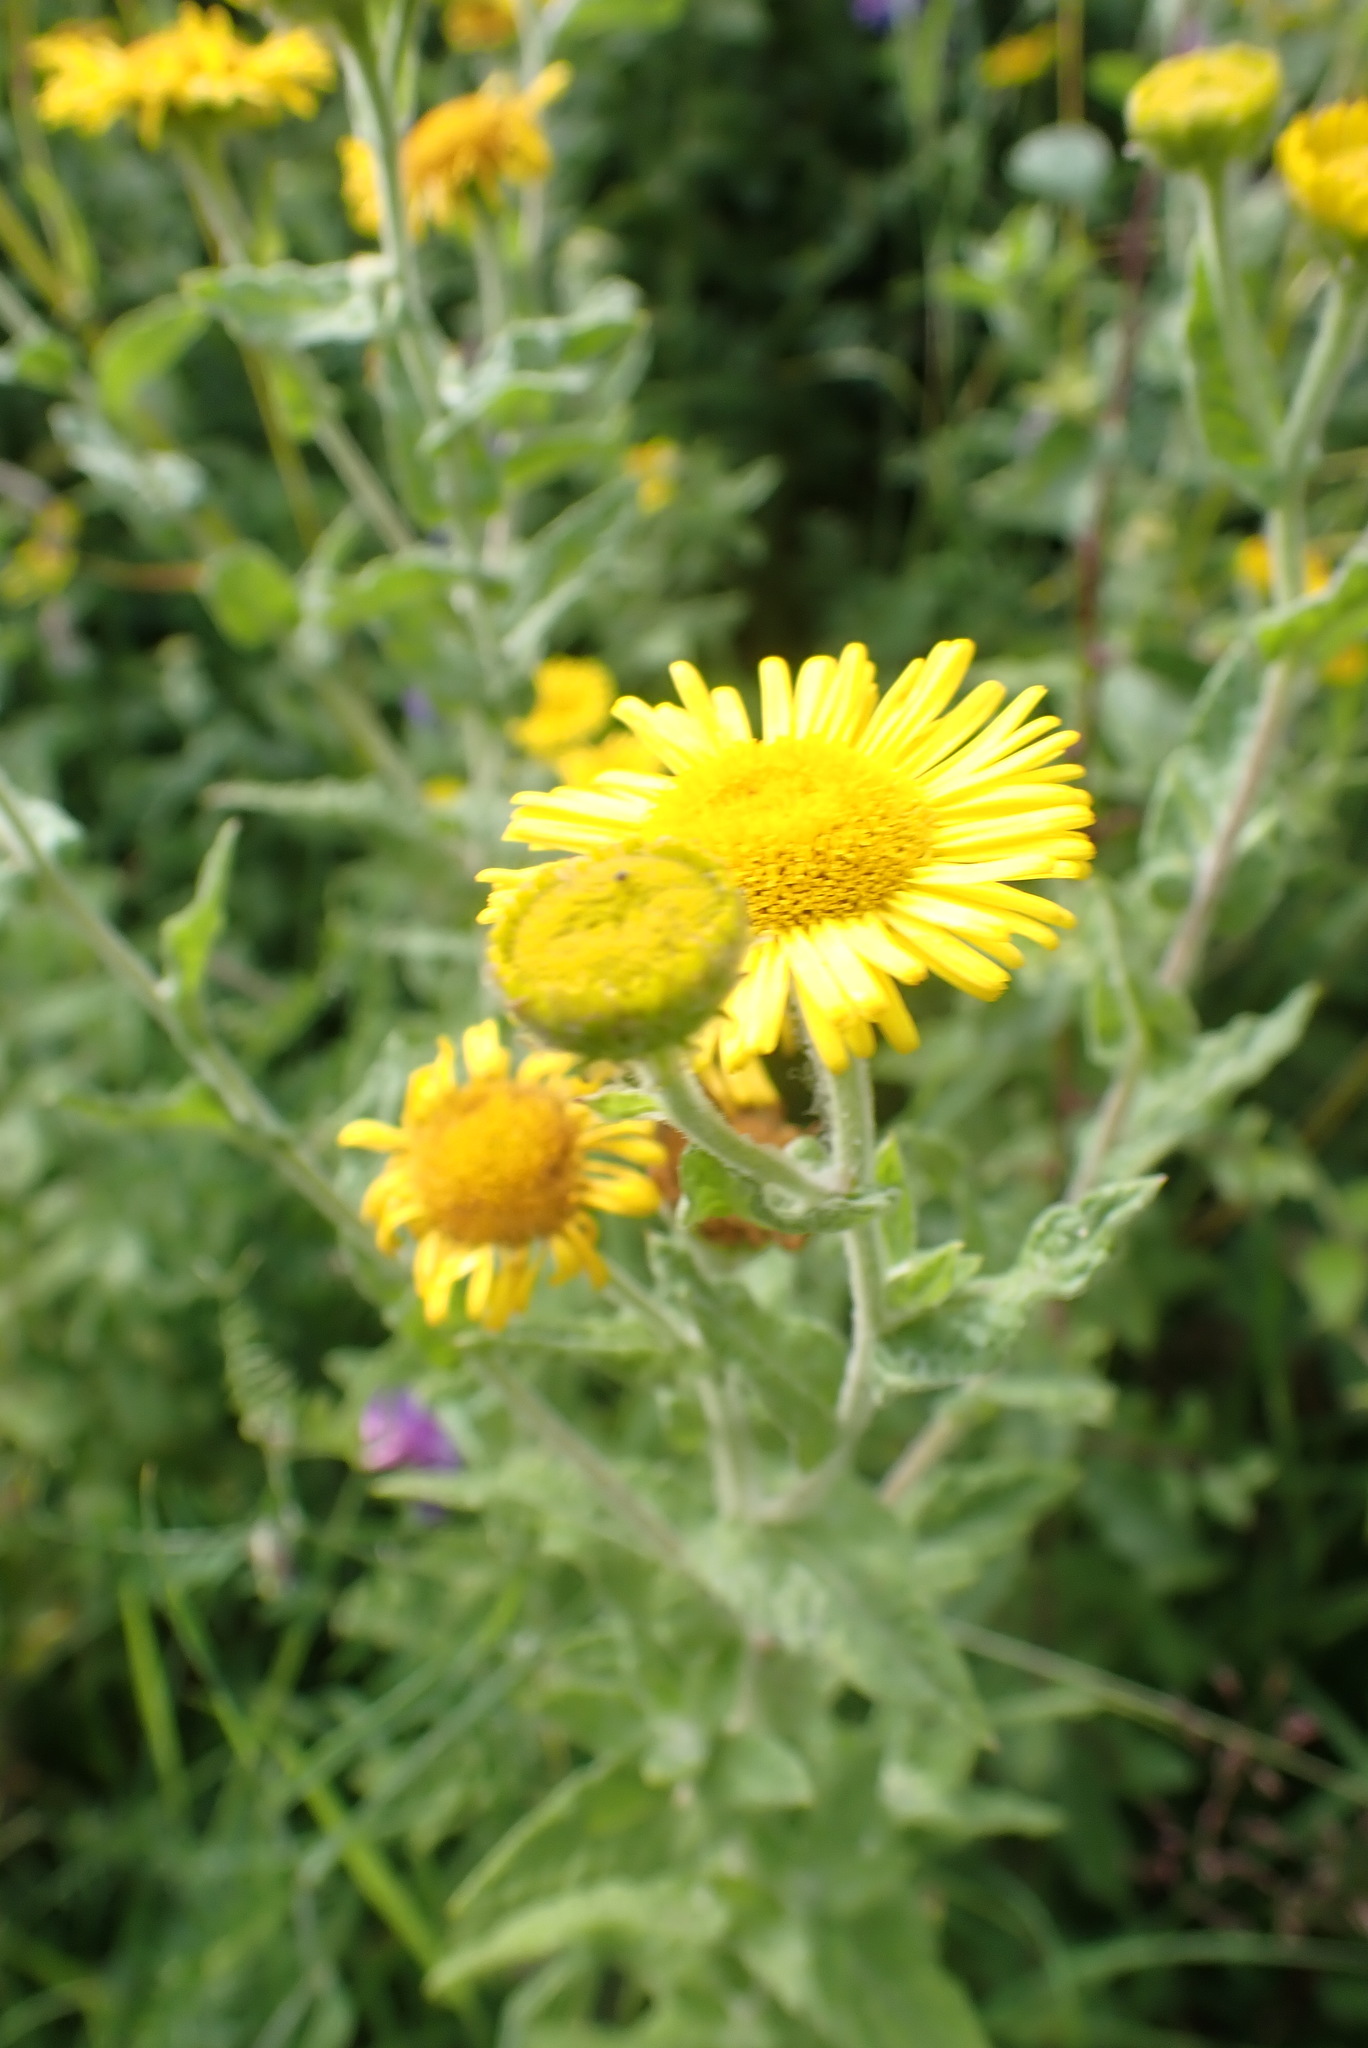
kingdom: Plantae
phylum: Tracheophyta
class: Magnoliopsida
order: Asterales
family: Asteraceae
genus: Pulicaria
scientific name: Pulicaria dysenterica
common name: Common fleabane
